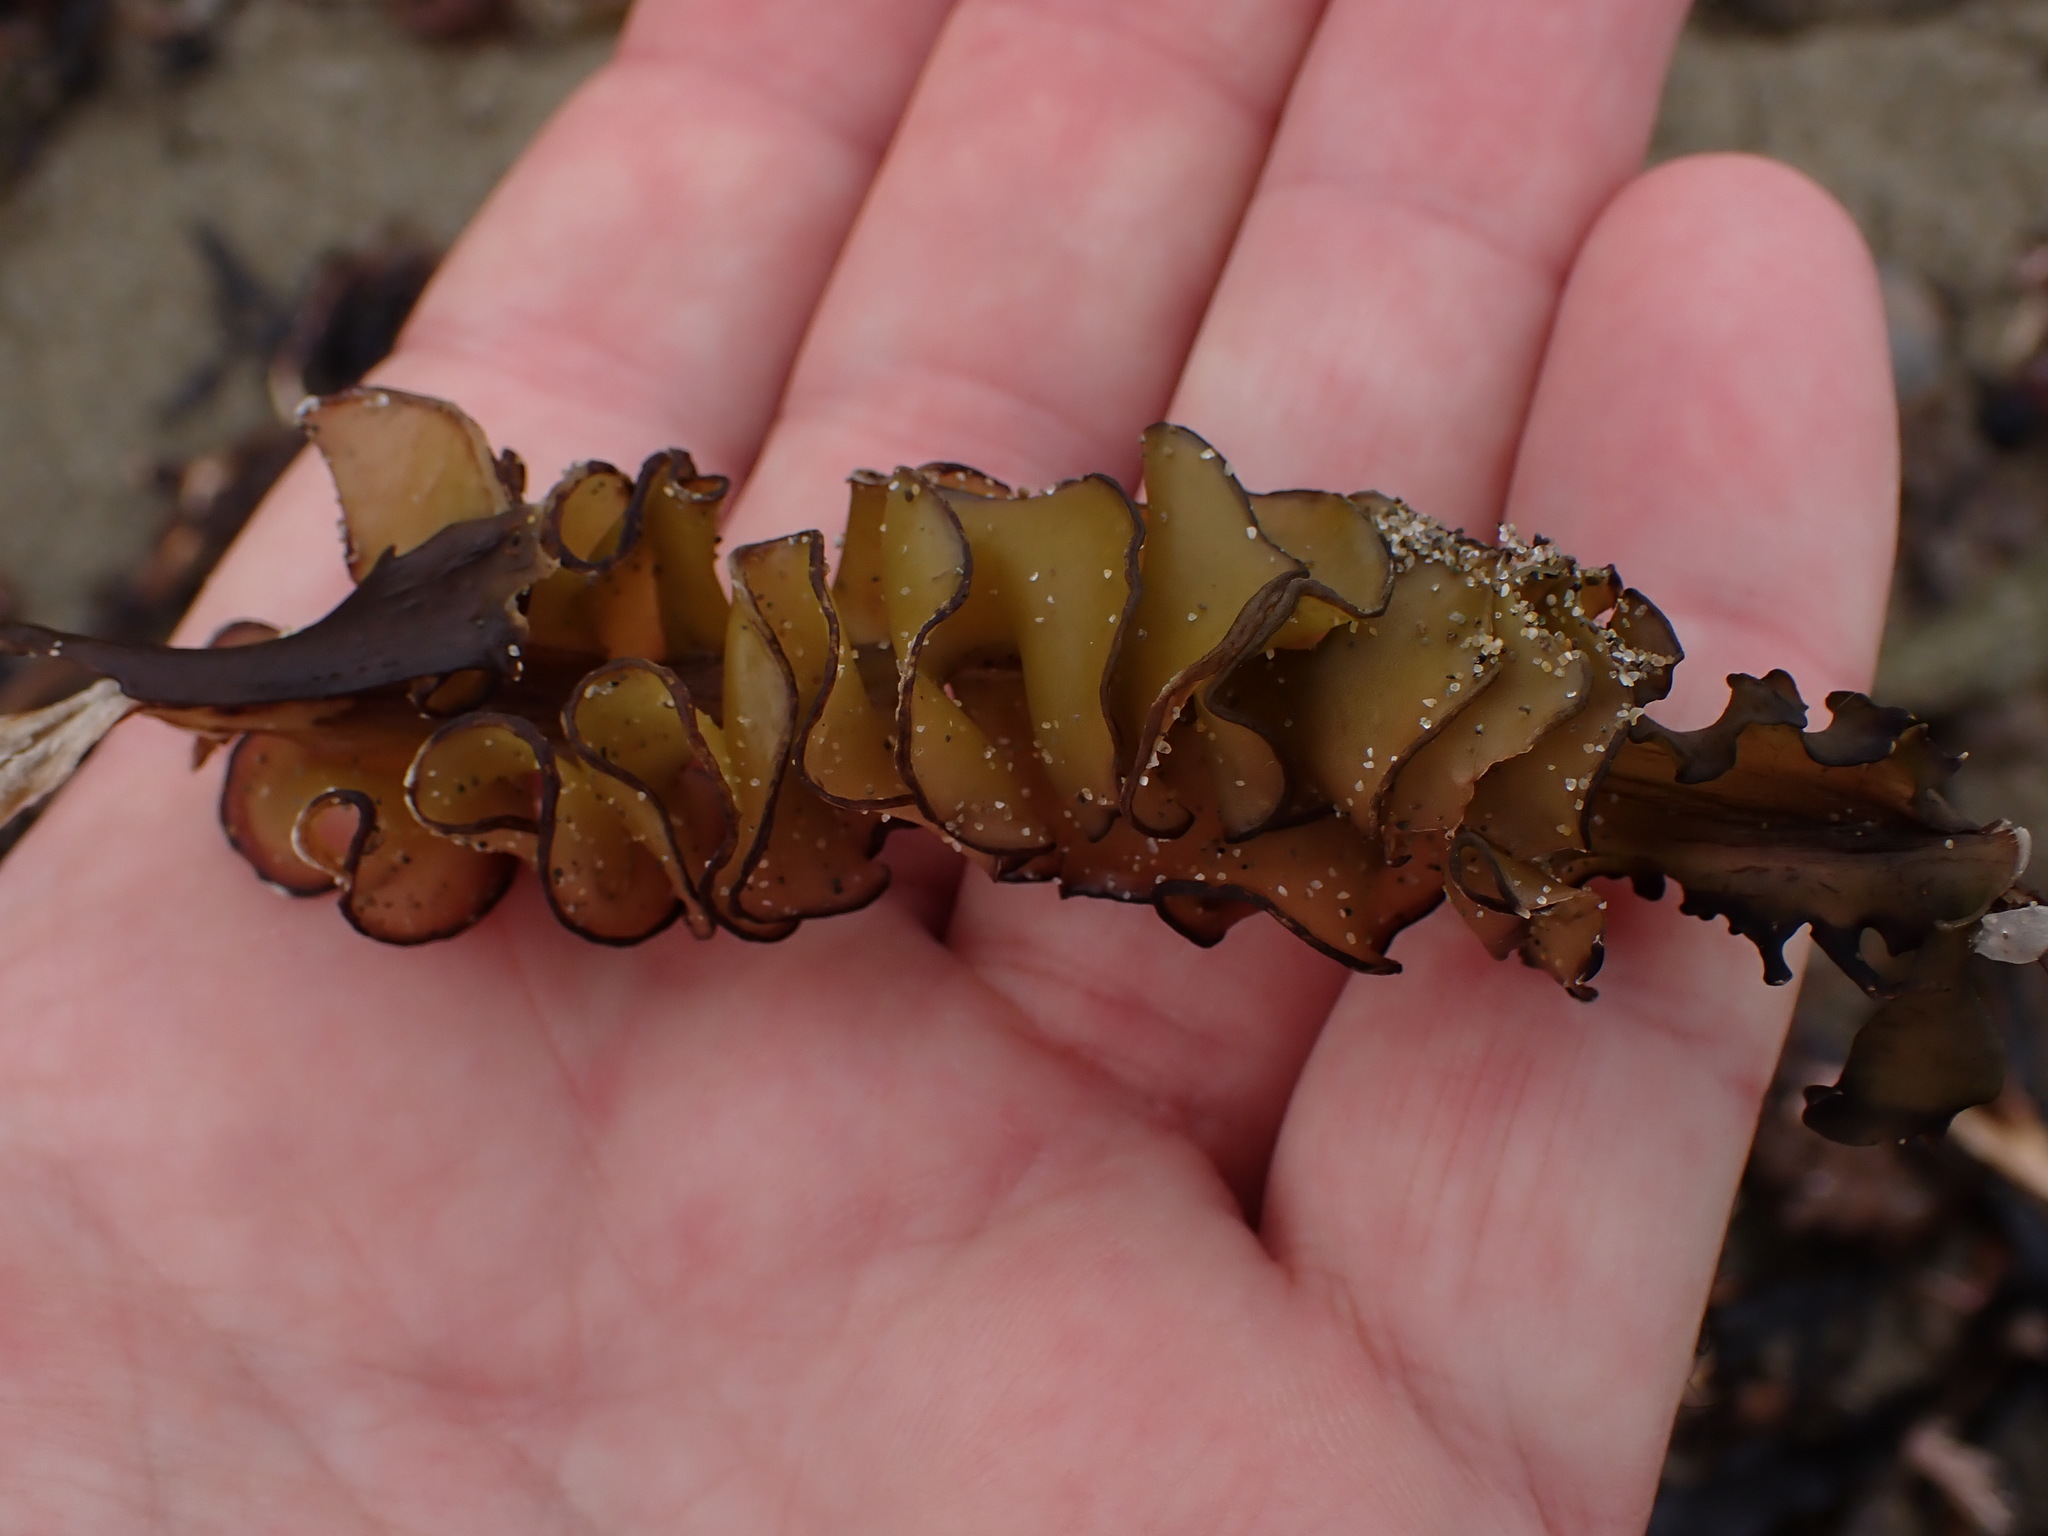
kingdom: Chromista
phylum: Ochrophyta
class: Phaeophyceae
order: Laminariales
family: Alariaceae
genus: Undaria
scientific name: Undaria pinnatifida
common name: Asian kelp
